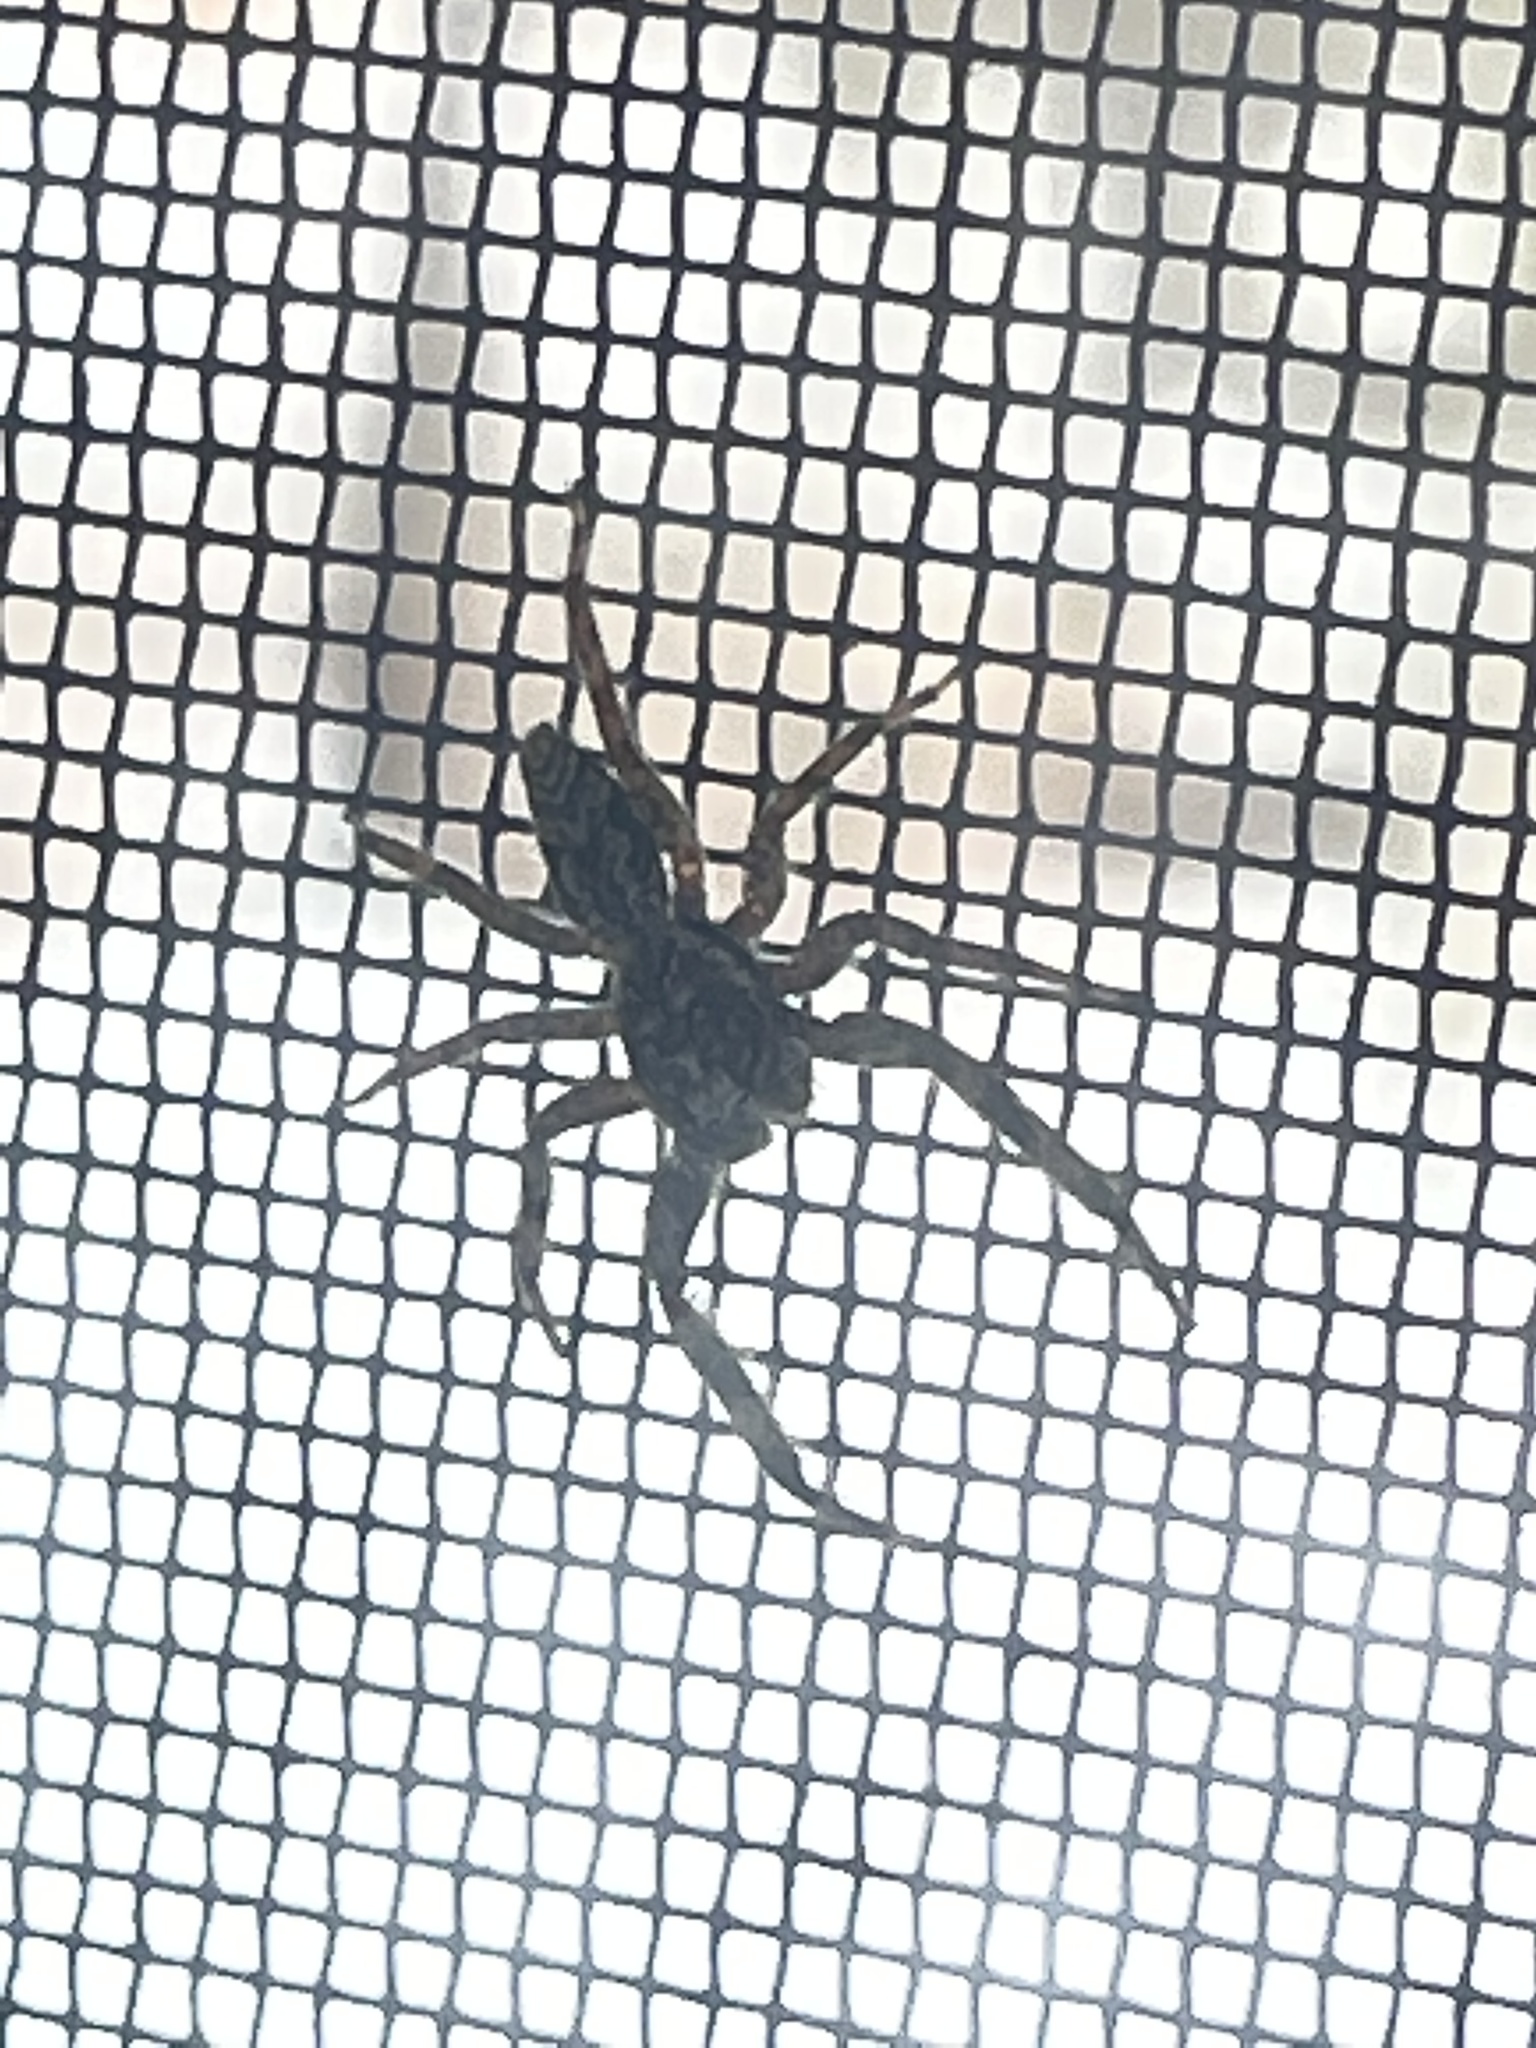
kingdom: Animalia
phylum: Arthropoda
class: Arachnida
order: Araneae
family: Salticidae
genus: Platycryptus
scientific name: Platycryptus undatus
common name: Tan jumping spider
